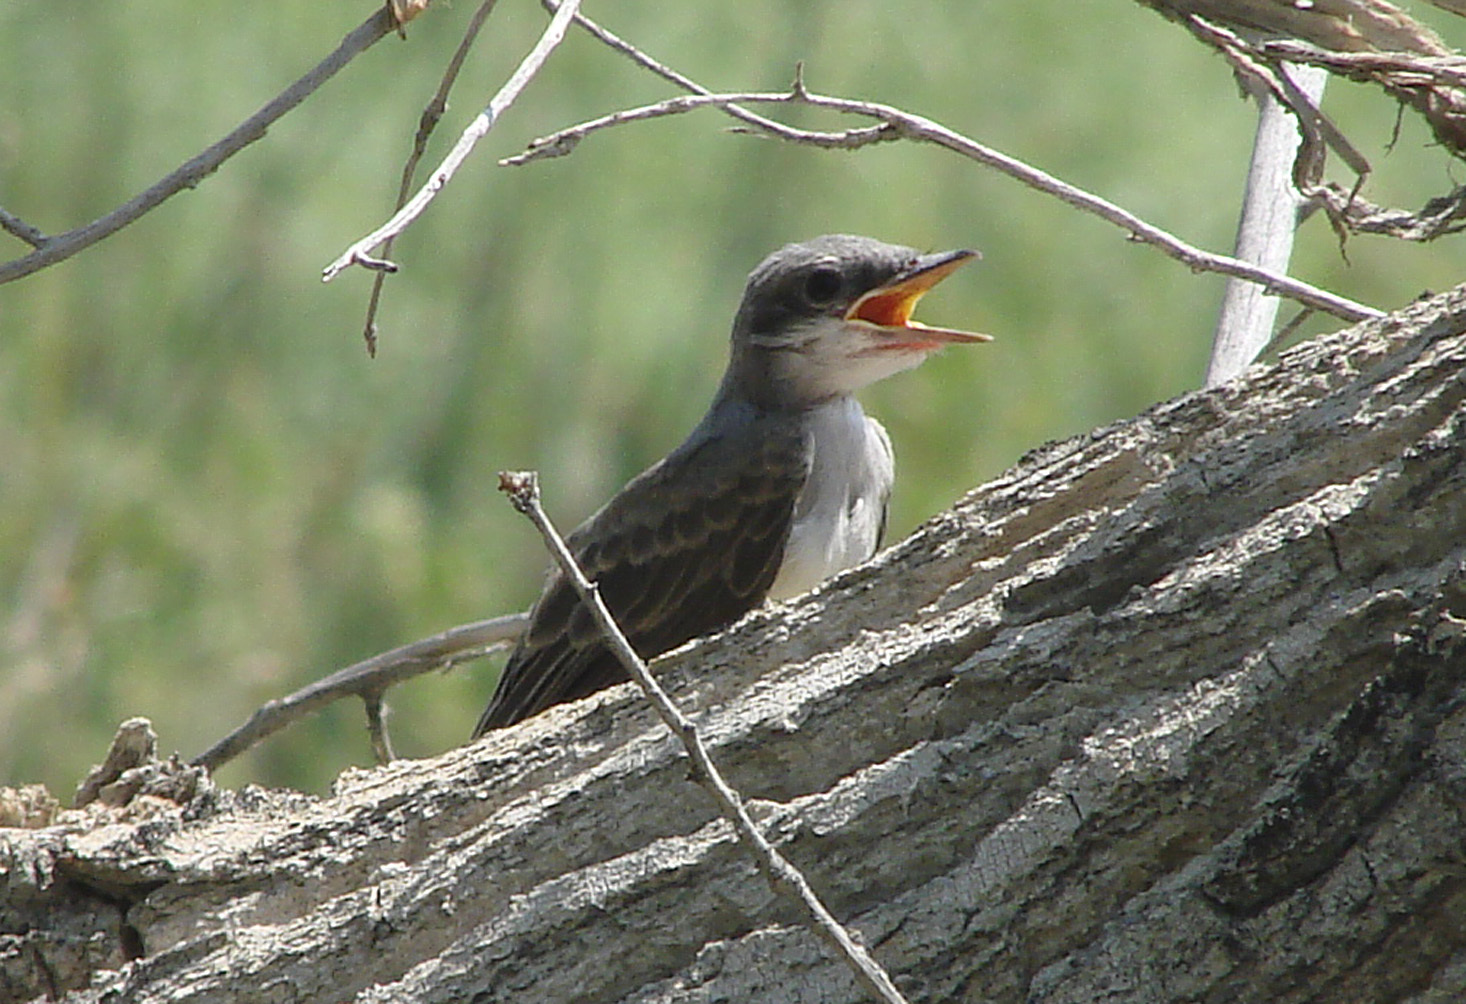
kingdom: Animalia
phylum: Chordata
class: Aves
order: Passeriformes
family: Tyrannidae
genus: Tyrannus
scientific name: Tyrannus verticalis
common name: Western kingbird
